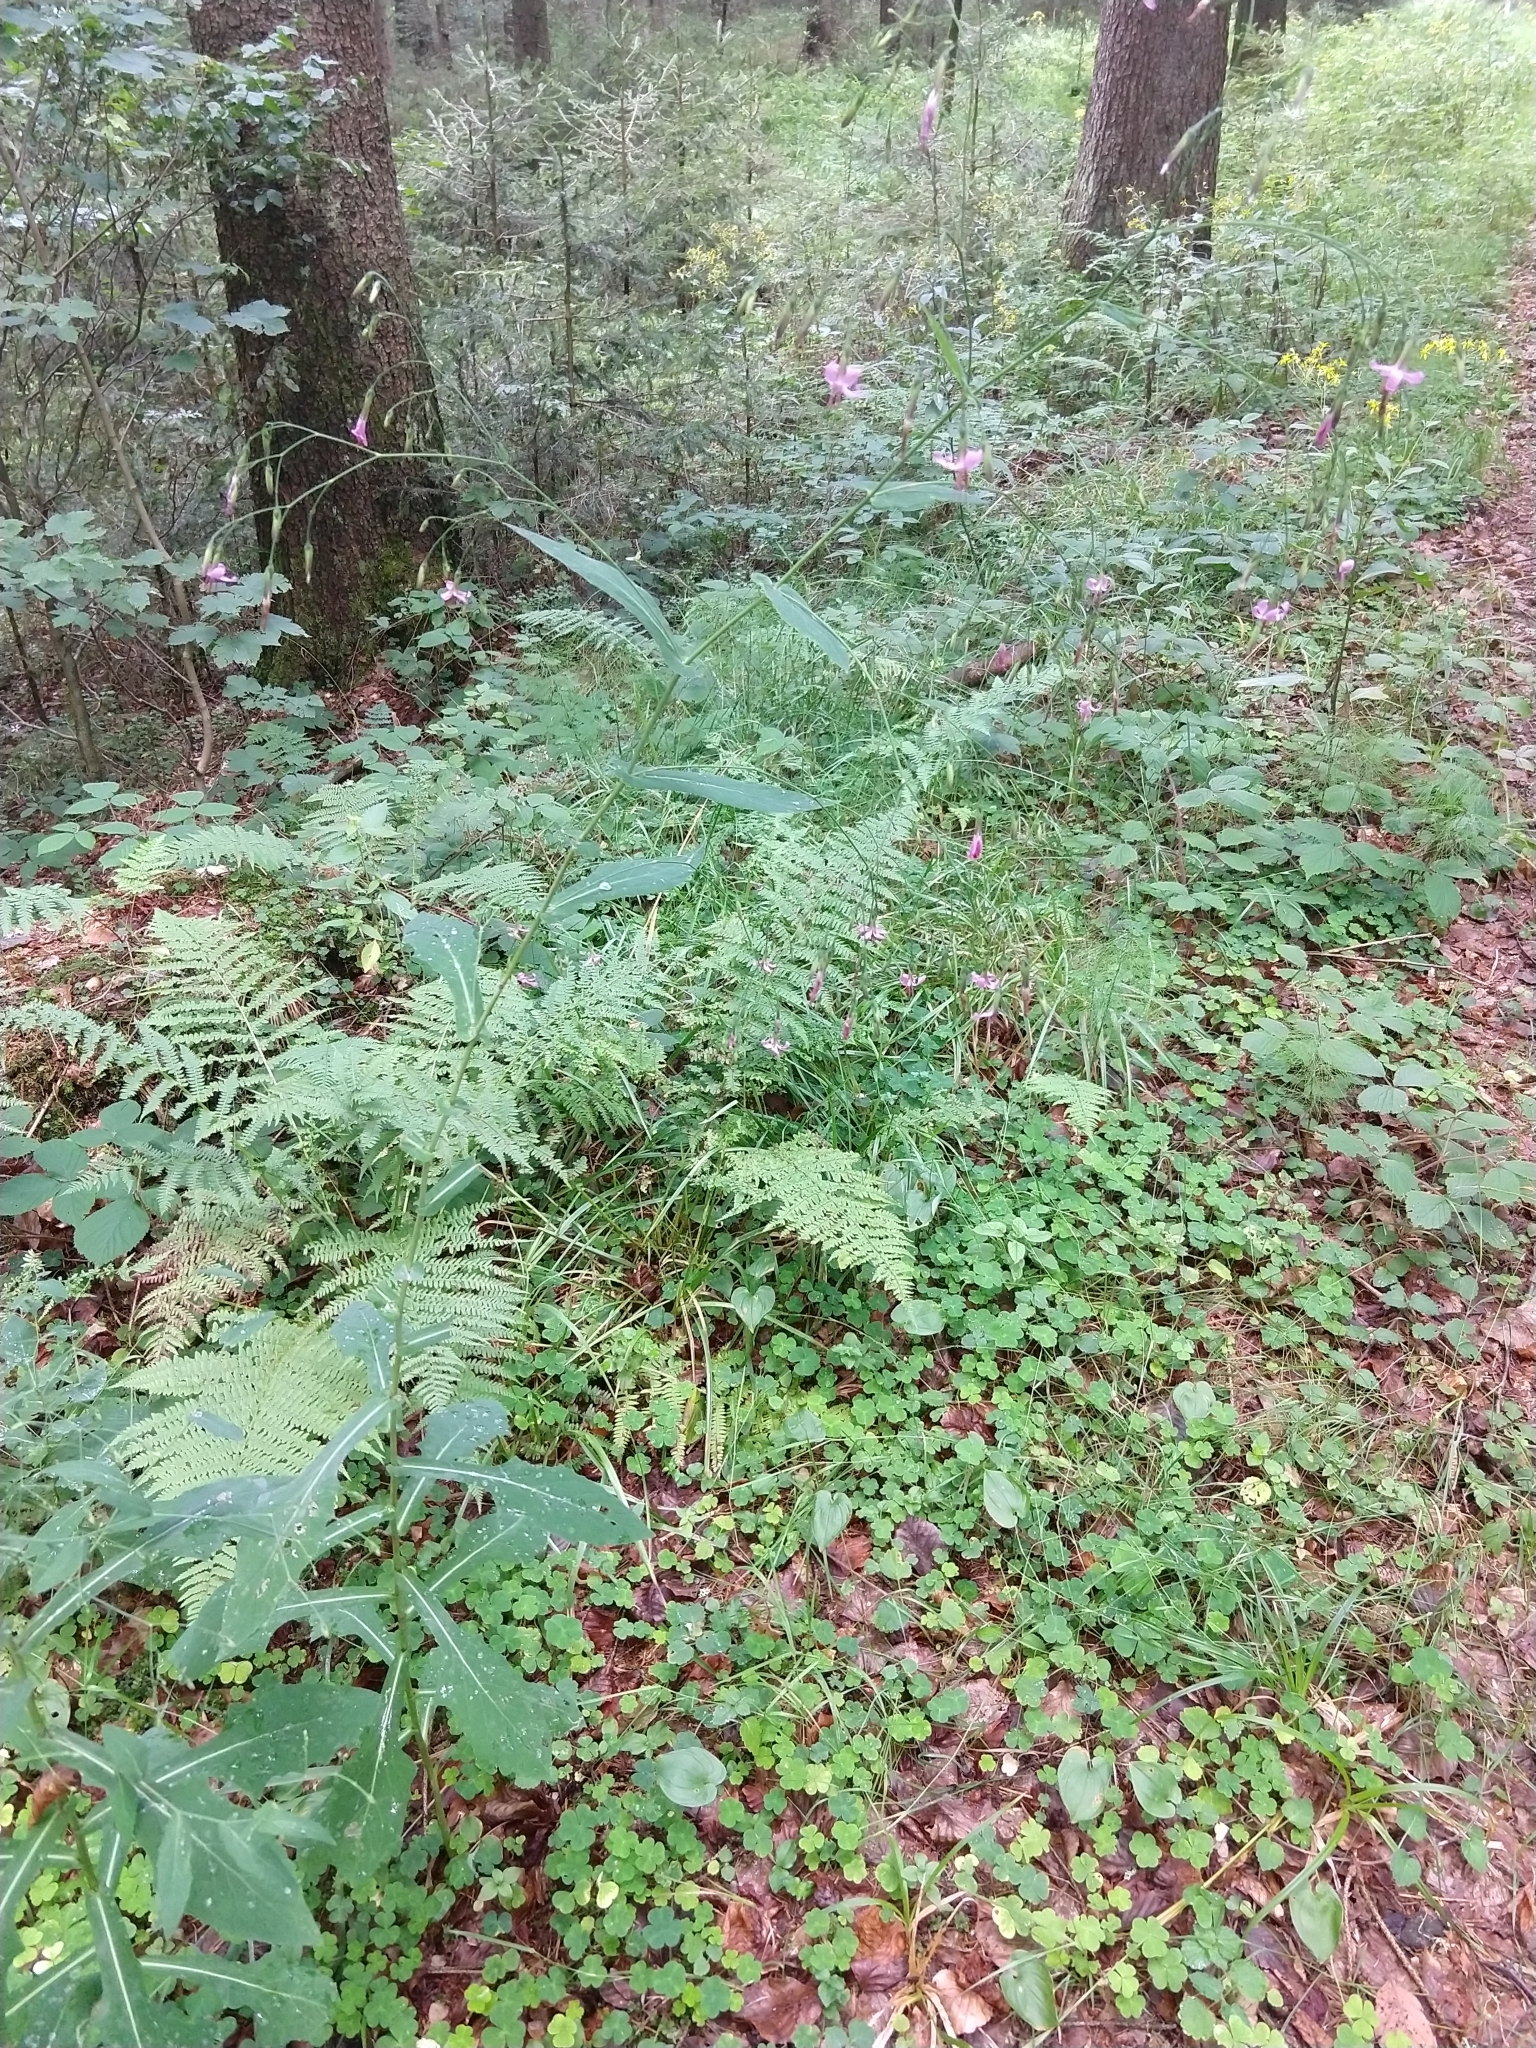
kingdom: Plantae
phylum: Tracheophyta
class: Magnoliopsida
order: Asterales
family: Asteraceae
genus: Prenanthes
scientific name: Prenanthes purpurea
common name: Purple lettuce
